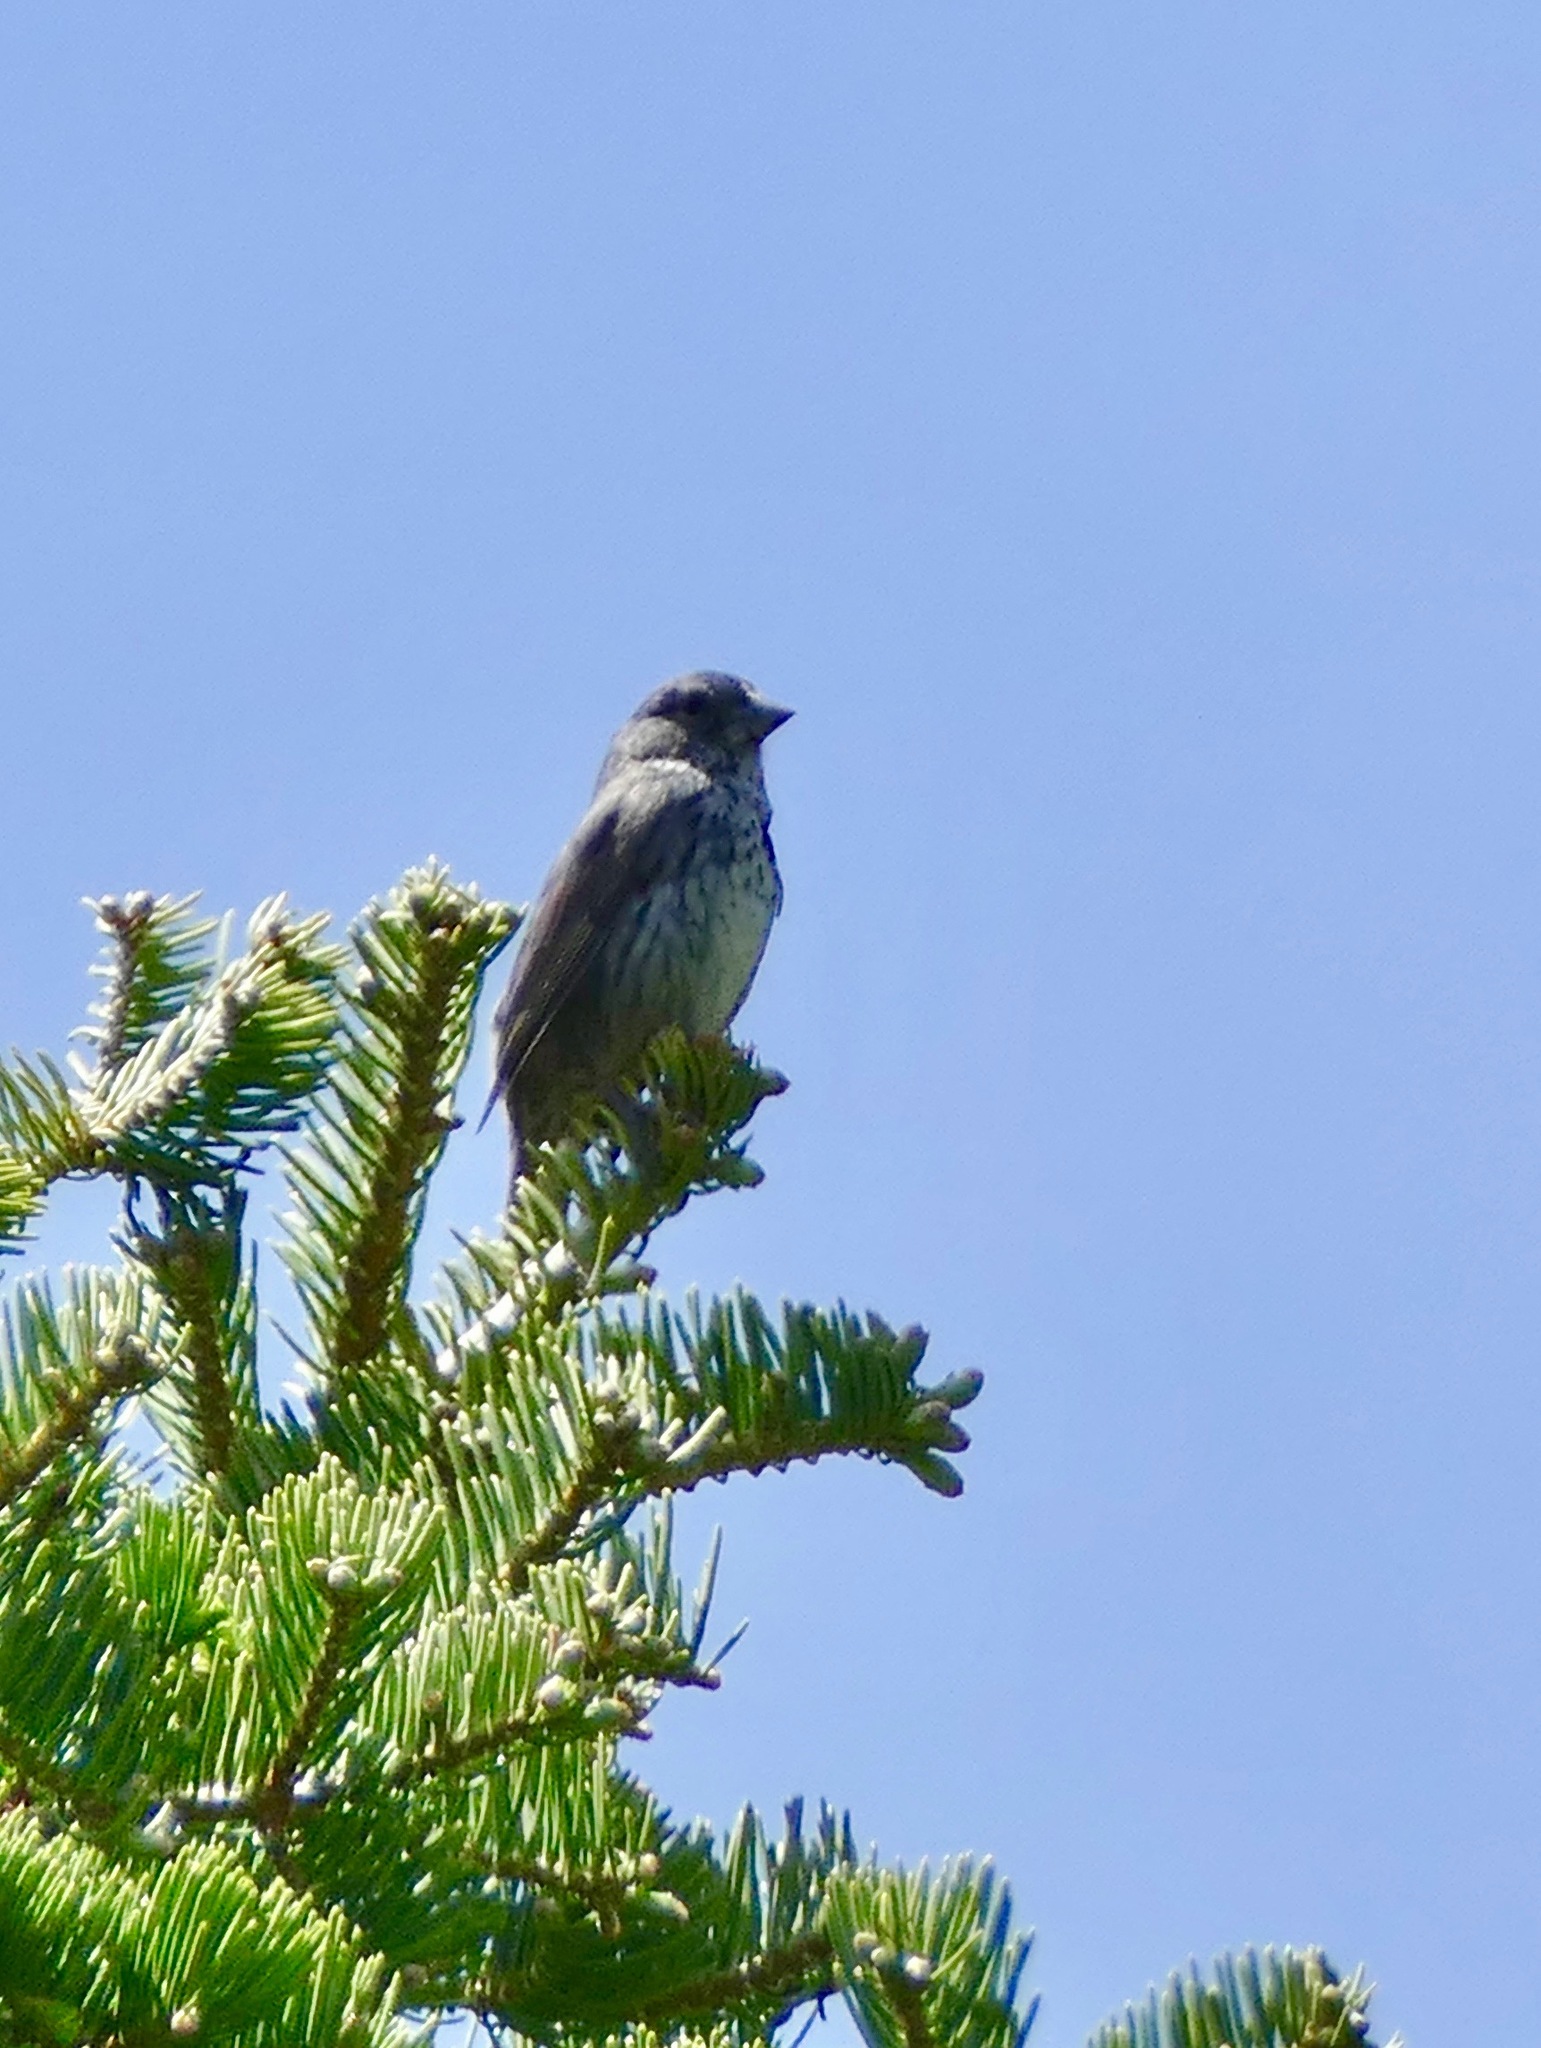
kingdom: Animalia
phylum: Chordata
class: Aves
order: Passeriformes
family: Passerellidae
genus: Passerella
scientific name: Passerella iliaca
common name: Fox sparrow
